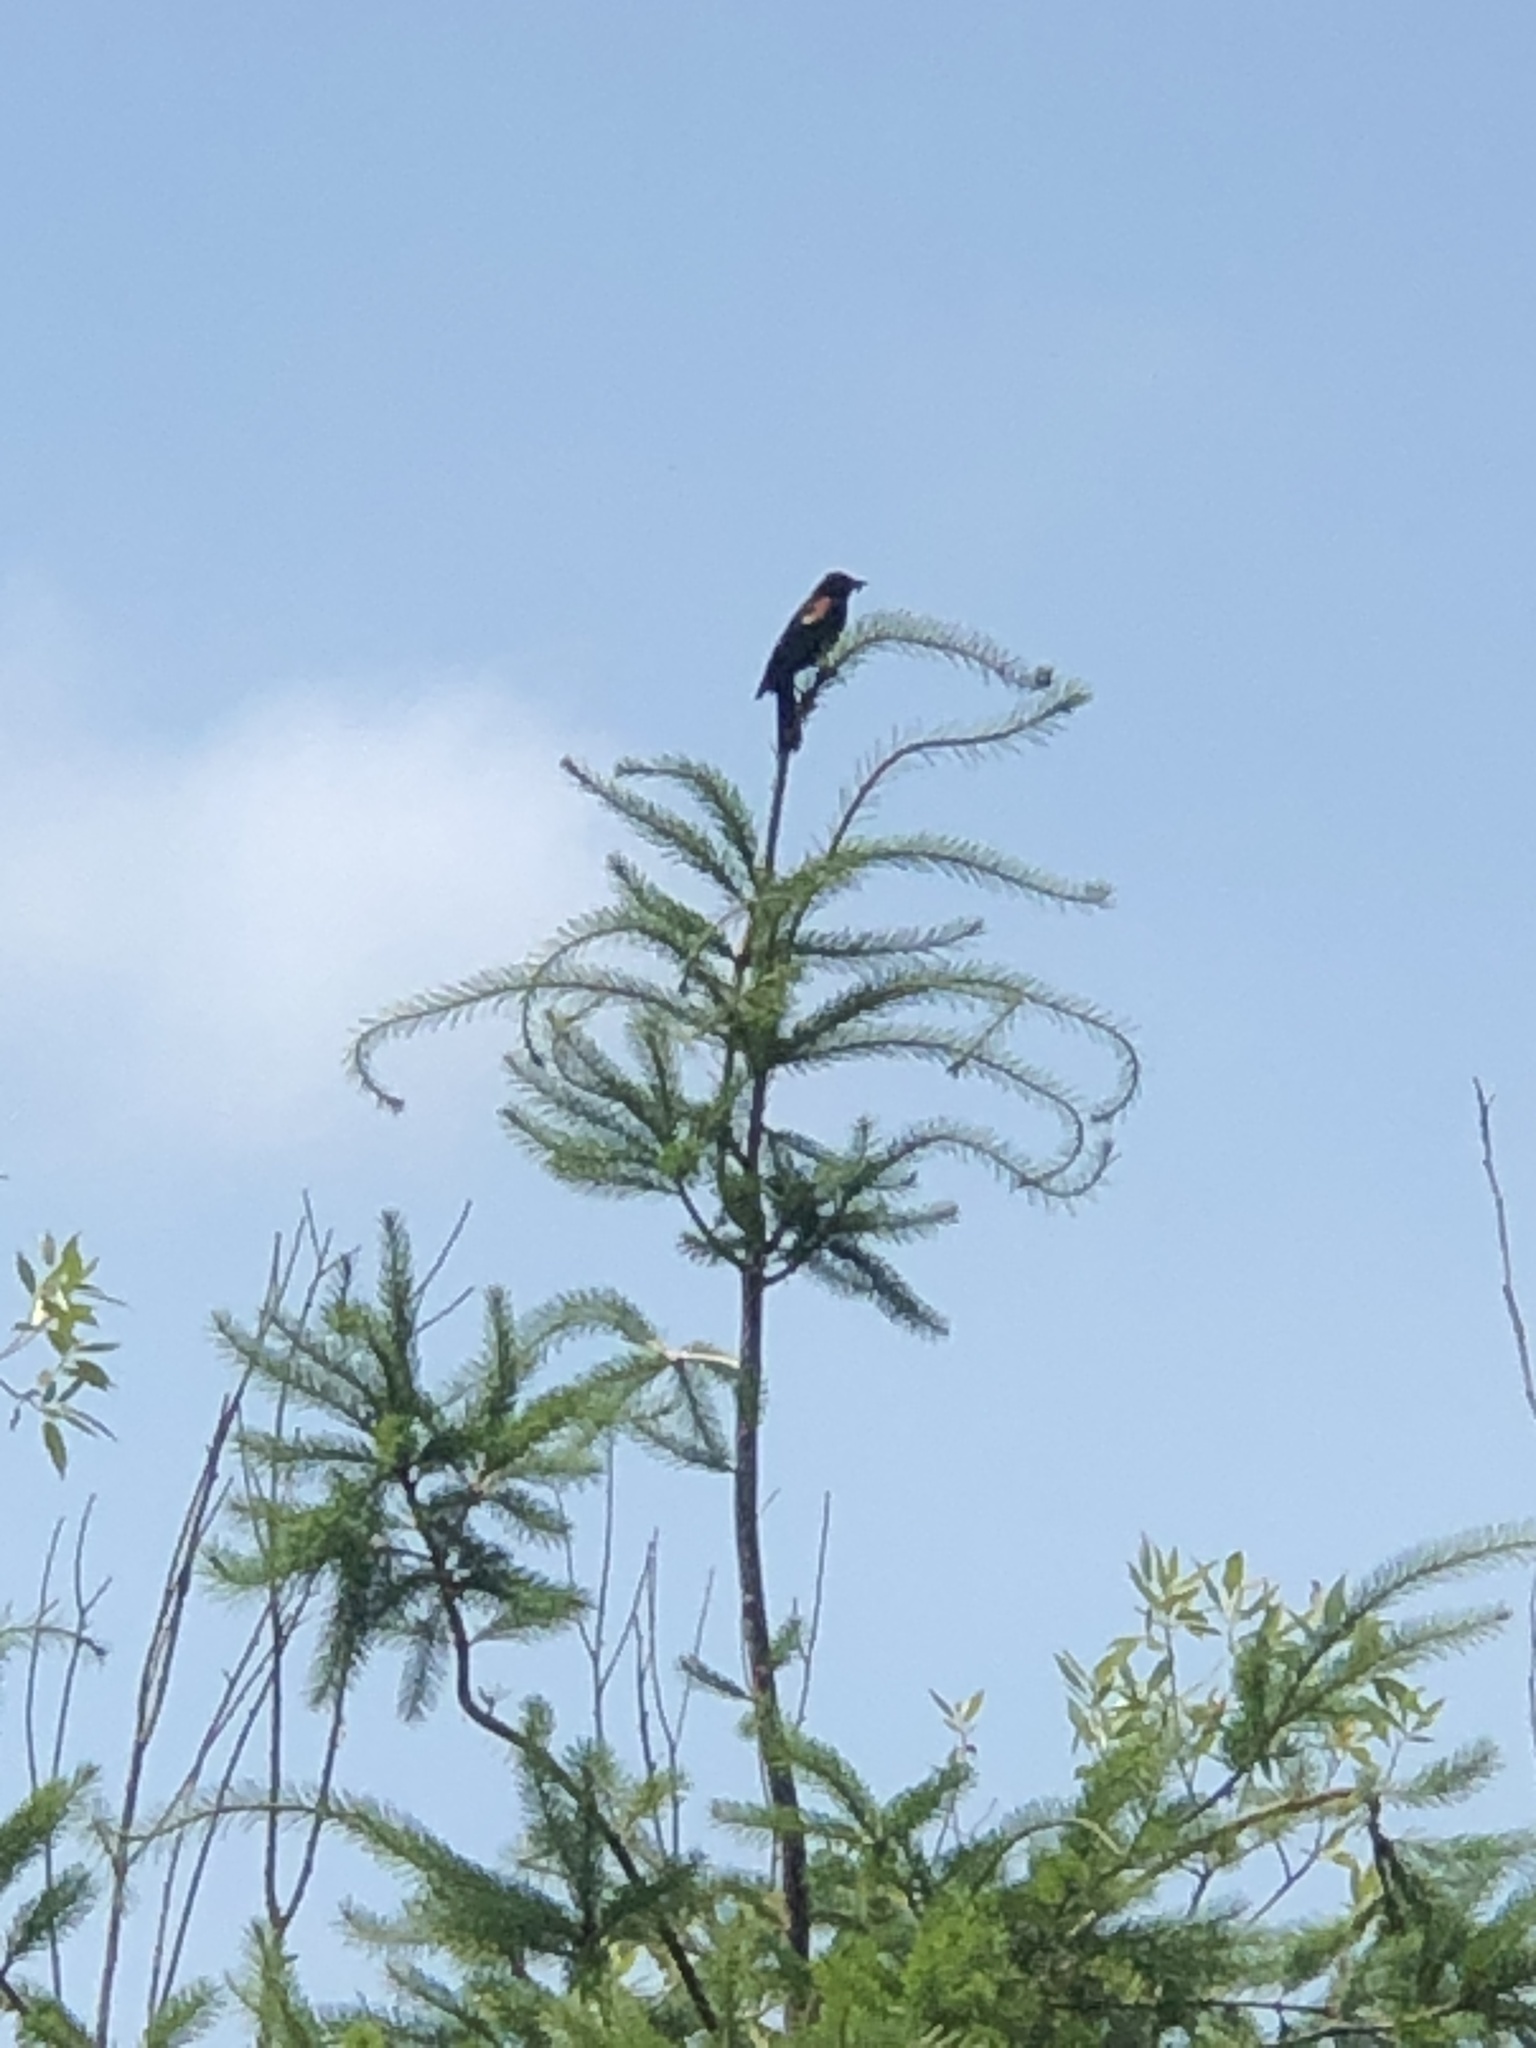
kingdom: Animalia
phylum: Chordata
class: Aves
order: Passeriformes
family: Icteridae
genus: Agelaius
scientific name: Agelaius phoeniceus
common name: Red-winged blackbird
